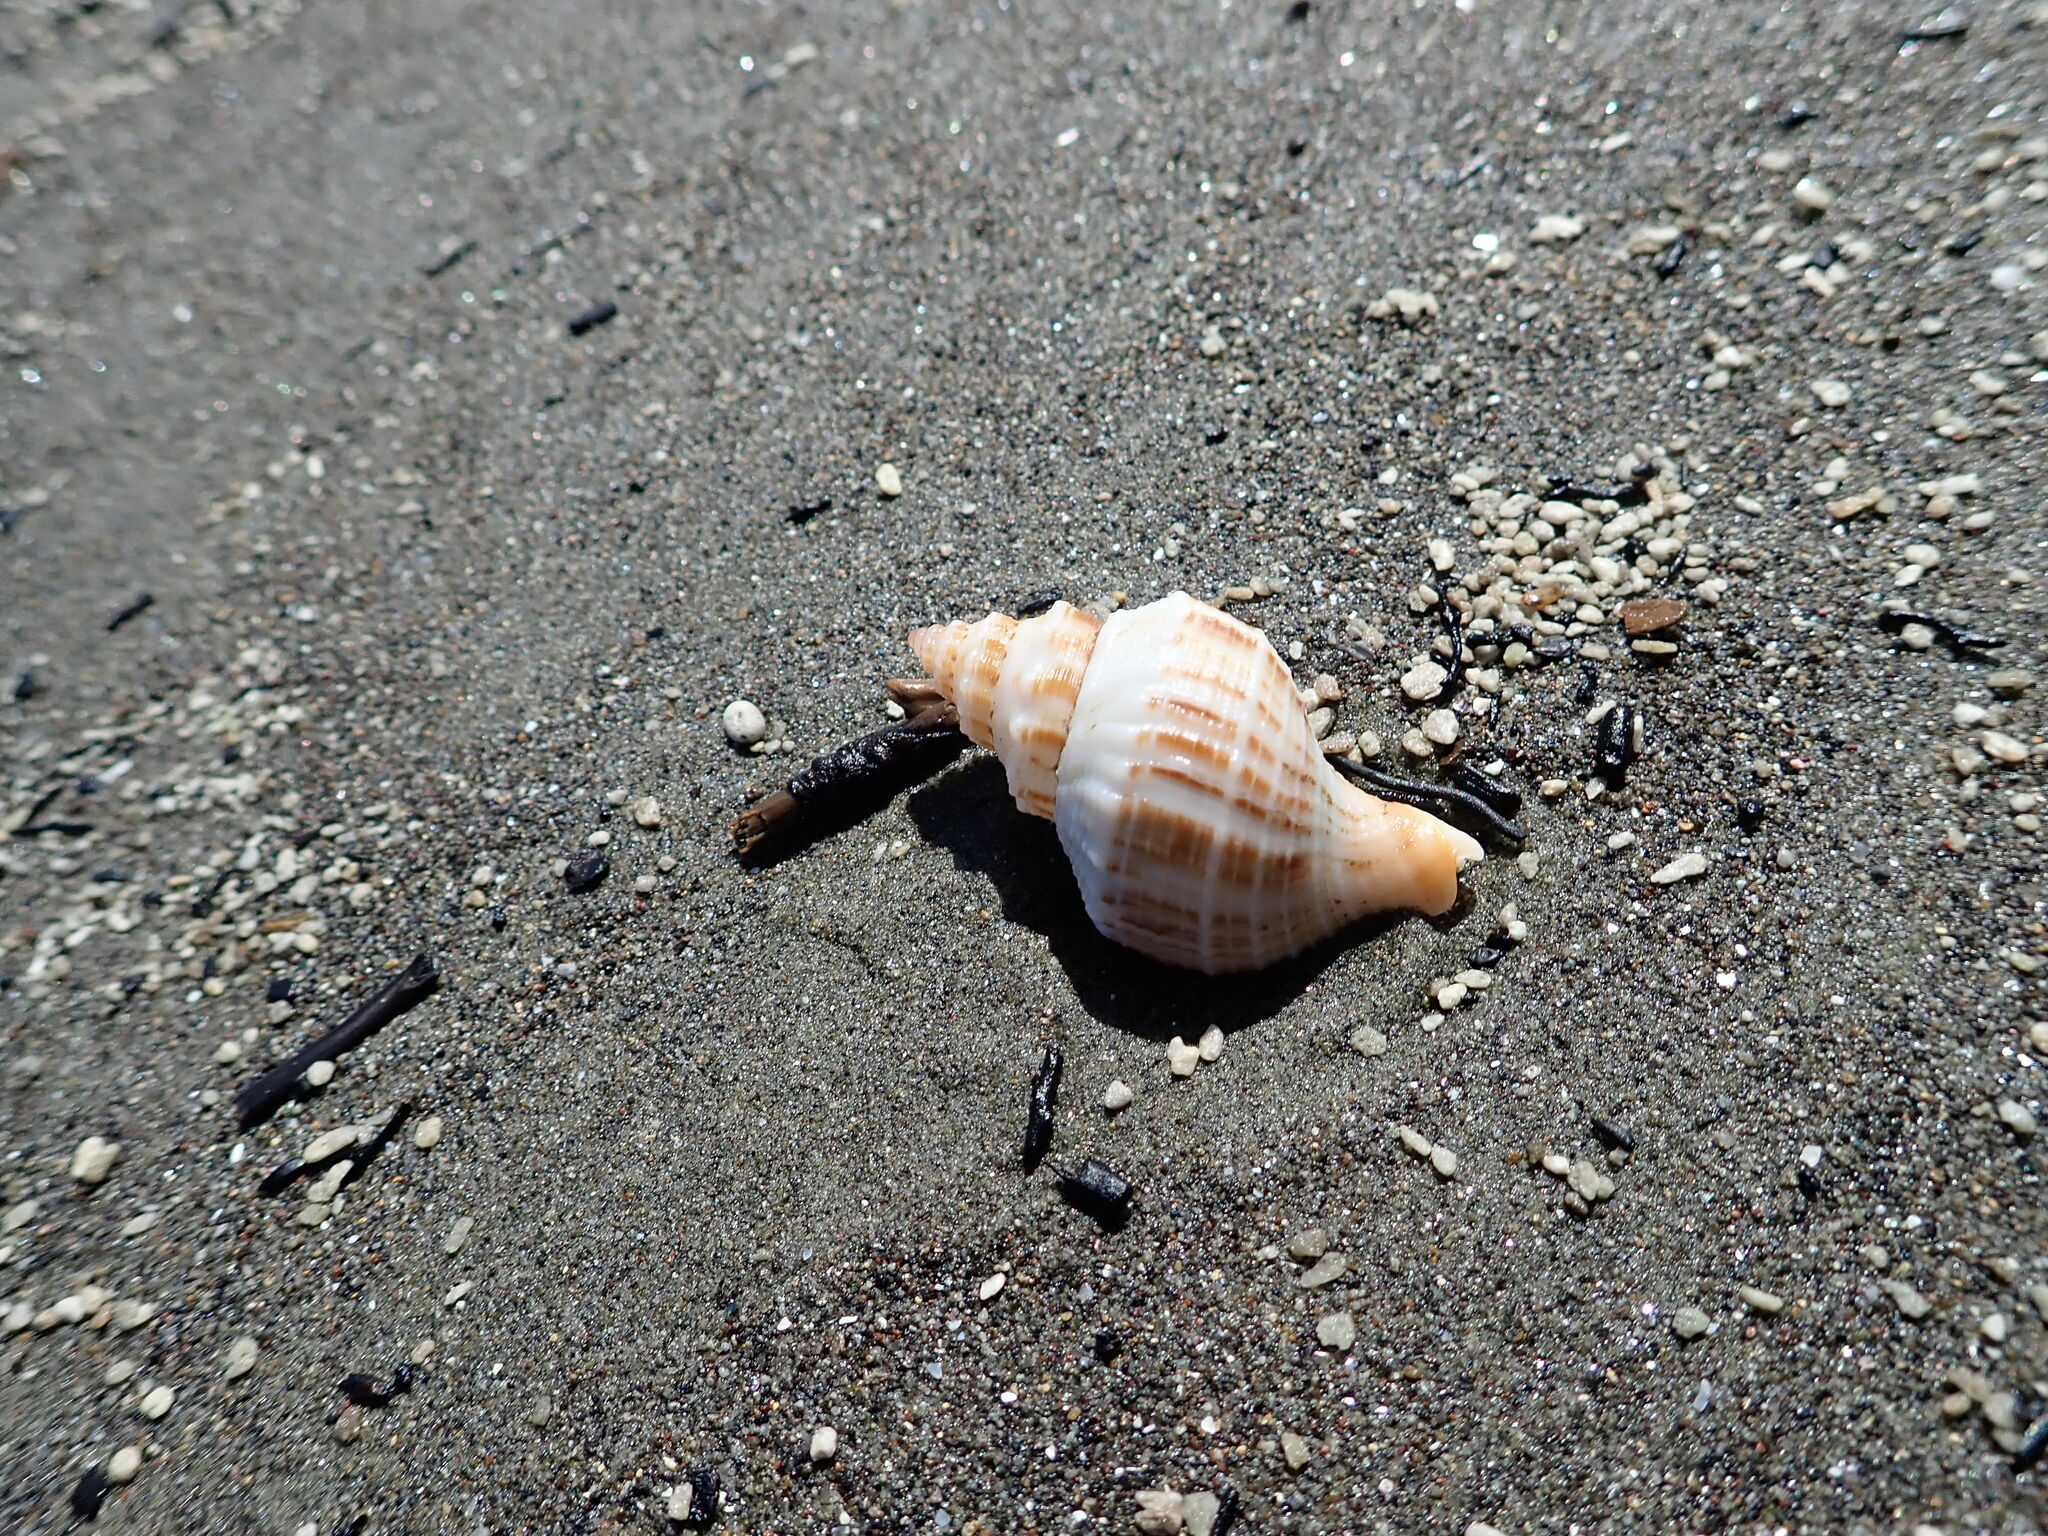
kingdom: Animalia
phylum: Mollusca
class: Gastropoda
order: Neogastropoda
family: Prosiphonidae
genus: Austrofusus
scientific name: Austrofusus glans
